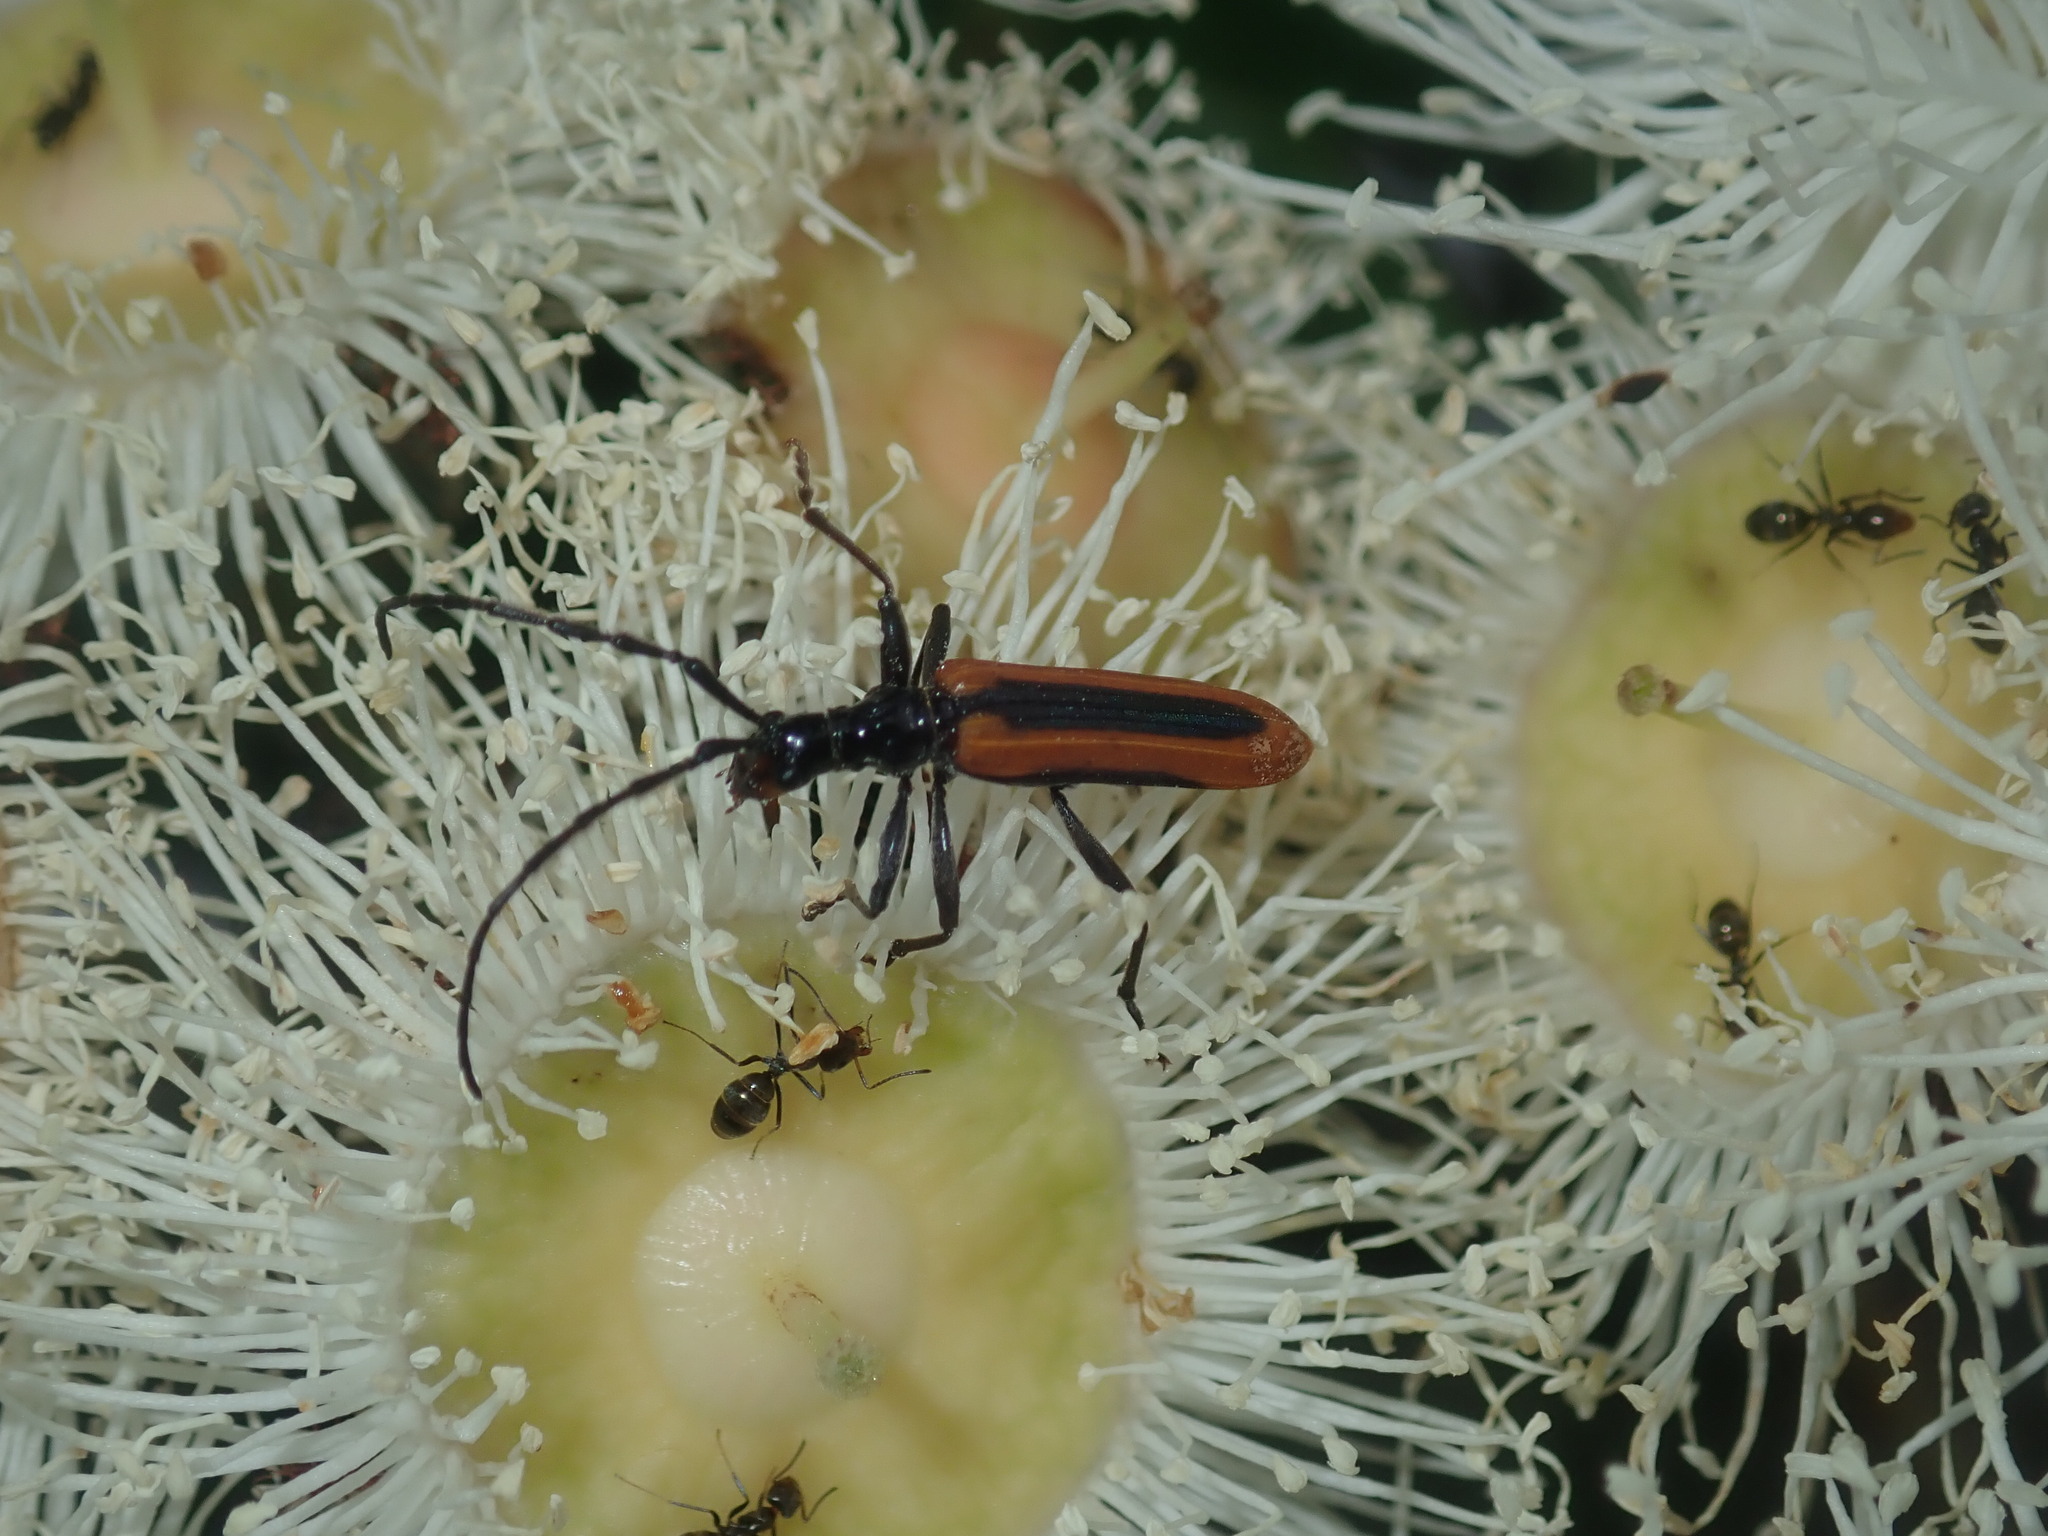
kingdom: Animalia
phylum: Arthropoda
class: Insecta
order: Coleoptera
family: Cerambycidae
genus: Stenoderus
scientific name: Stenoderus suturalis
